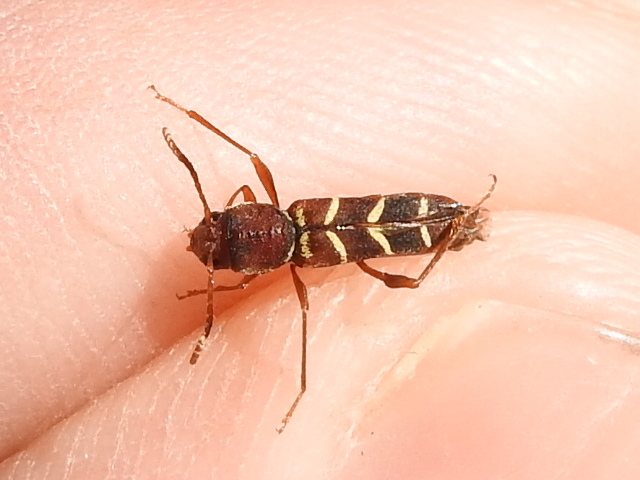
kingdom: Animalia
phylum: Arthropoda
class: Insecta
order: Coleoptera
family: Cerambycidae
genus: Neoclytus
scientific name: Neoclytus acuminatus
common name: Read-headed ash borer
